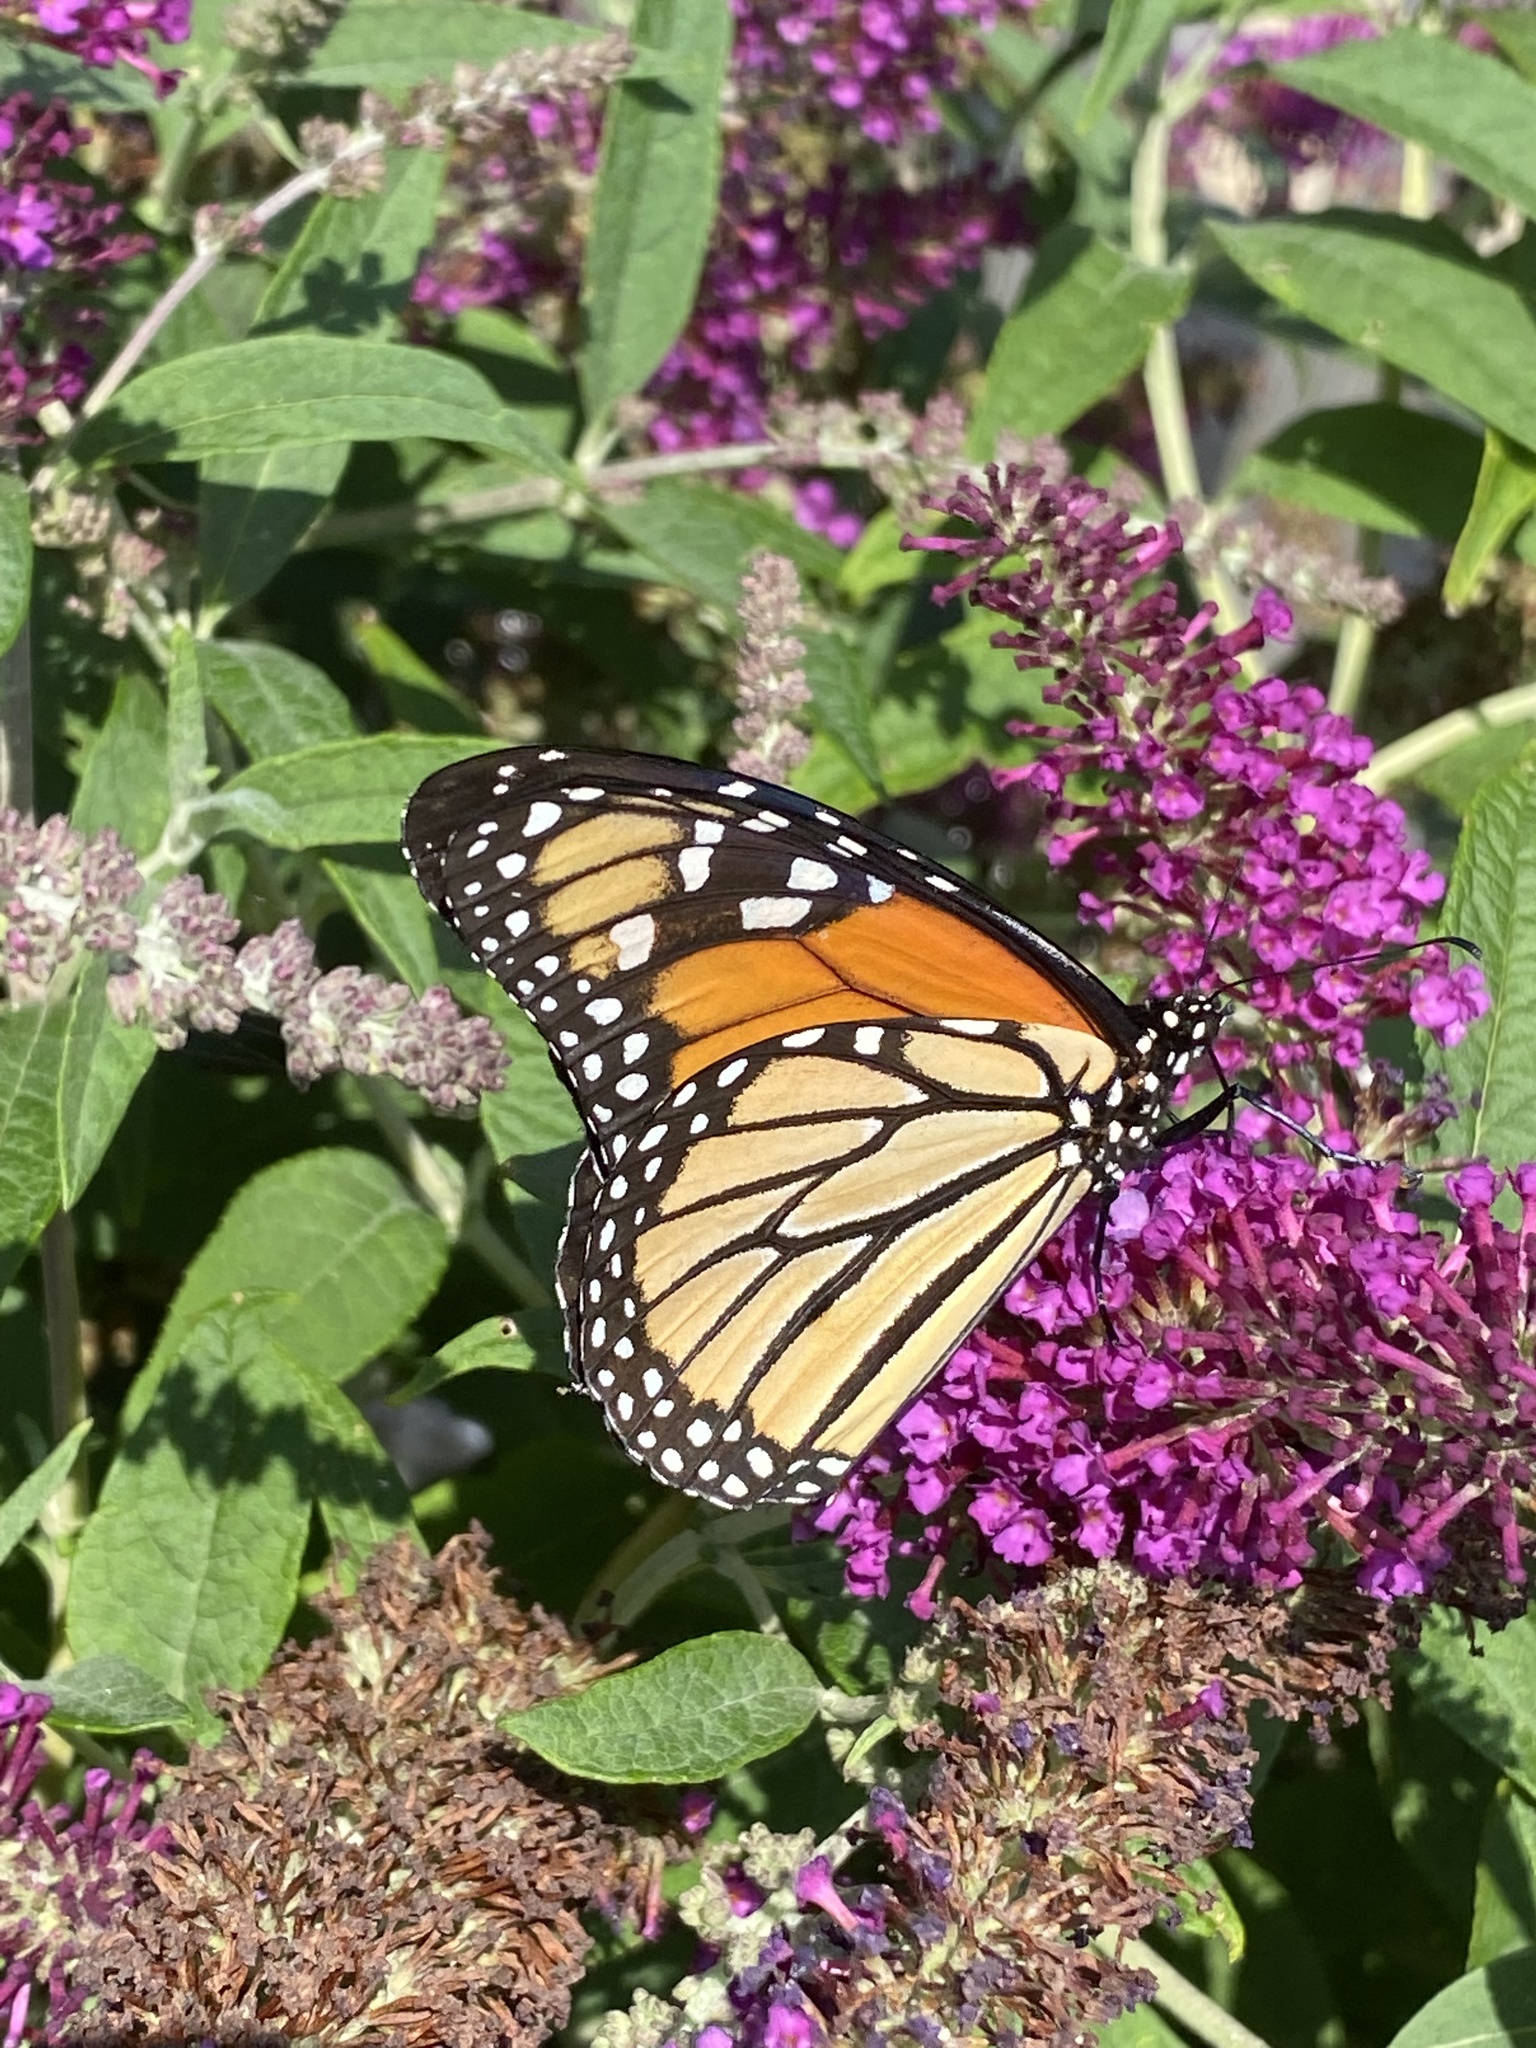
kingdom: Animalia
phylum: Arthropoda
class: Insecta
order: Lepidoptera
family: Nymphalidae
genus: Danaus
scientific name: Danaus plexippus
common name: Monarch
